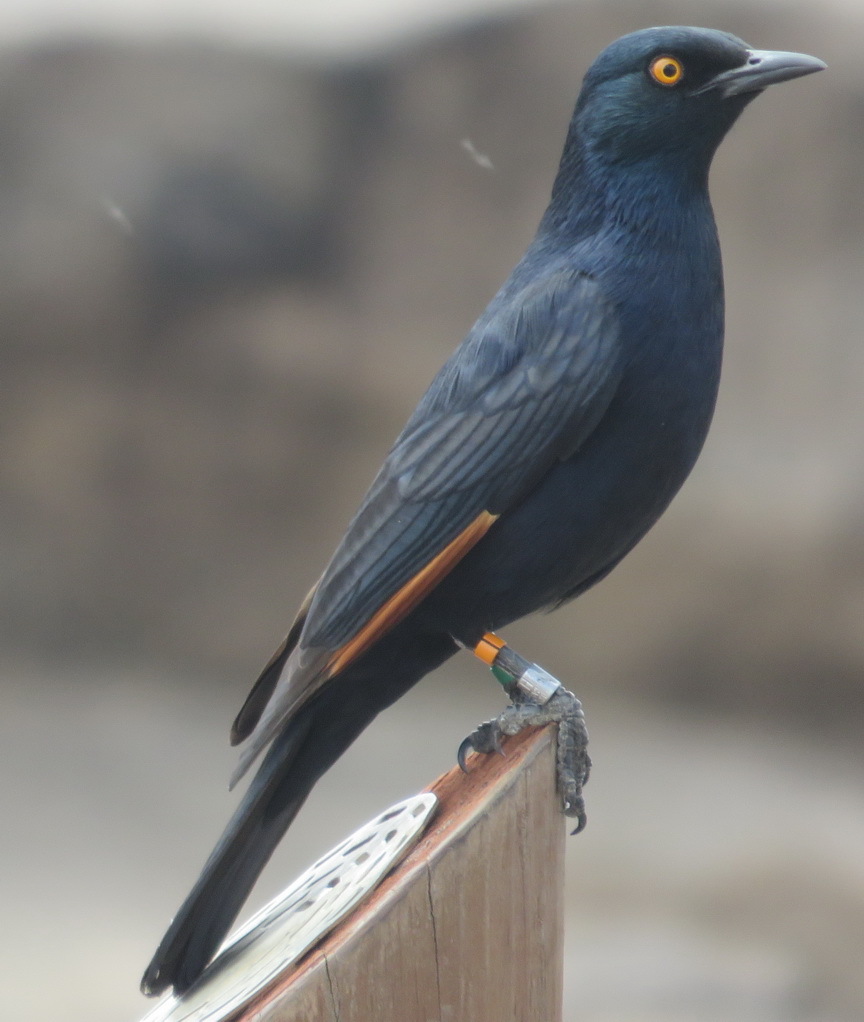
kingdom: Animalia
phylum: Chordata
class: Aves
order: Passeriformes
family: Sturnidae
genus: Onychognathus
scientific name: Onychognathus nabouroup
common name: Pale-winged starling
